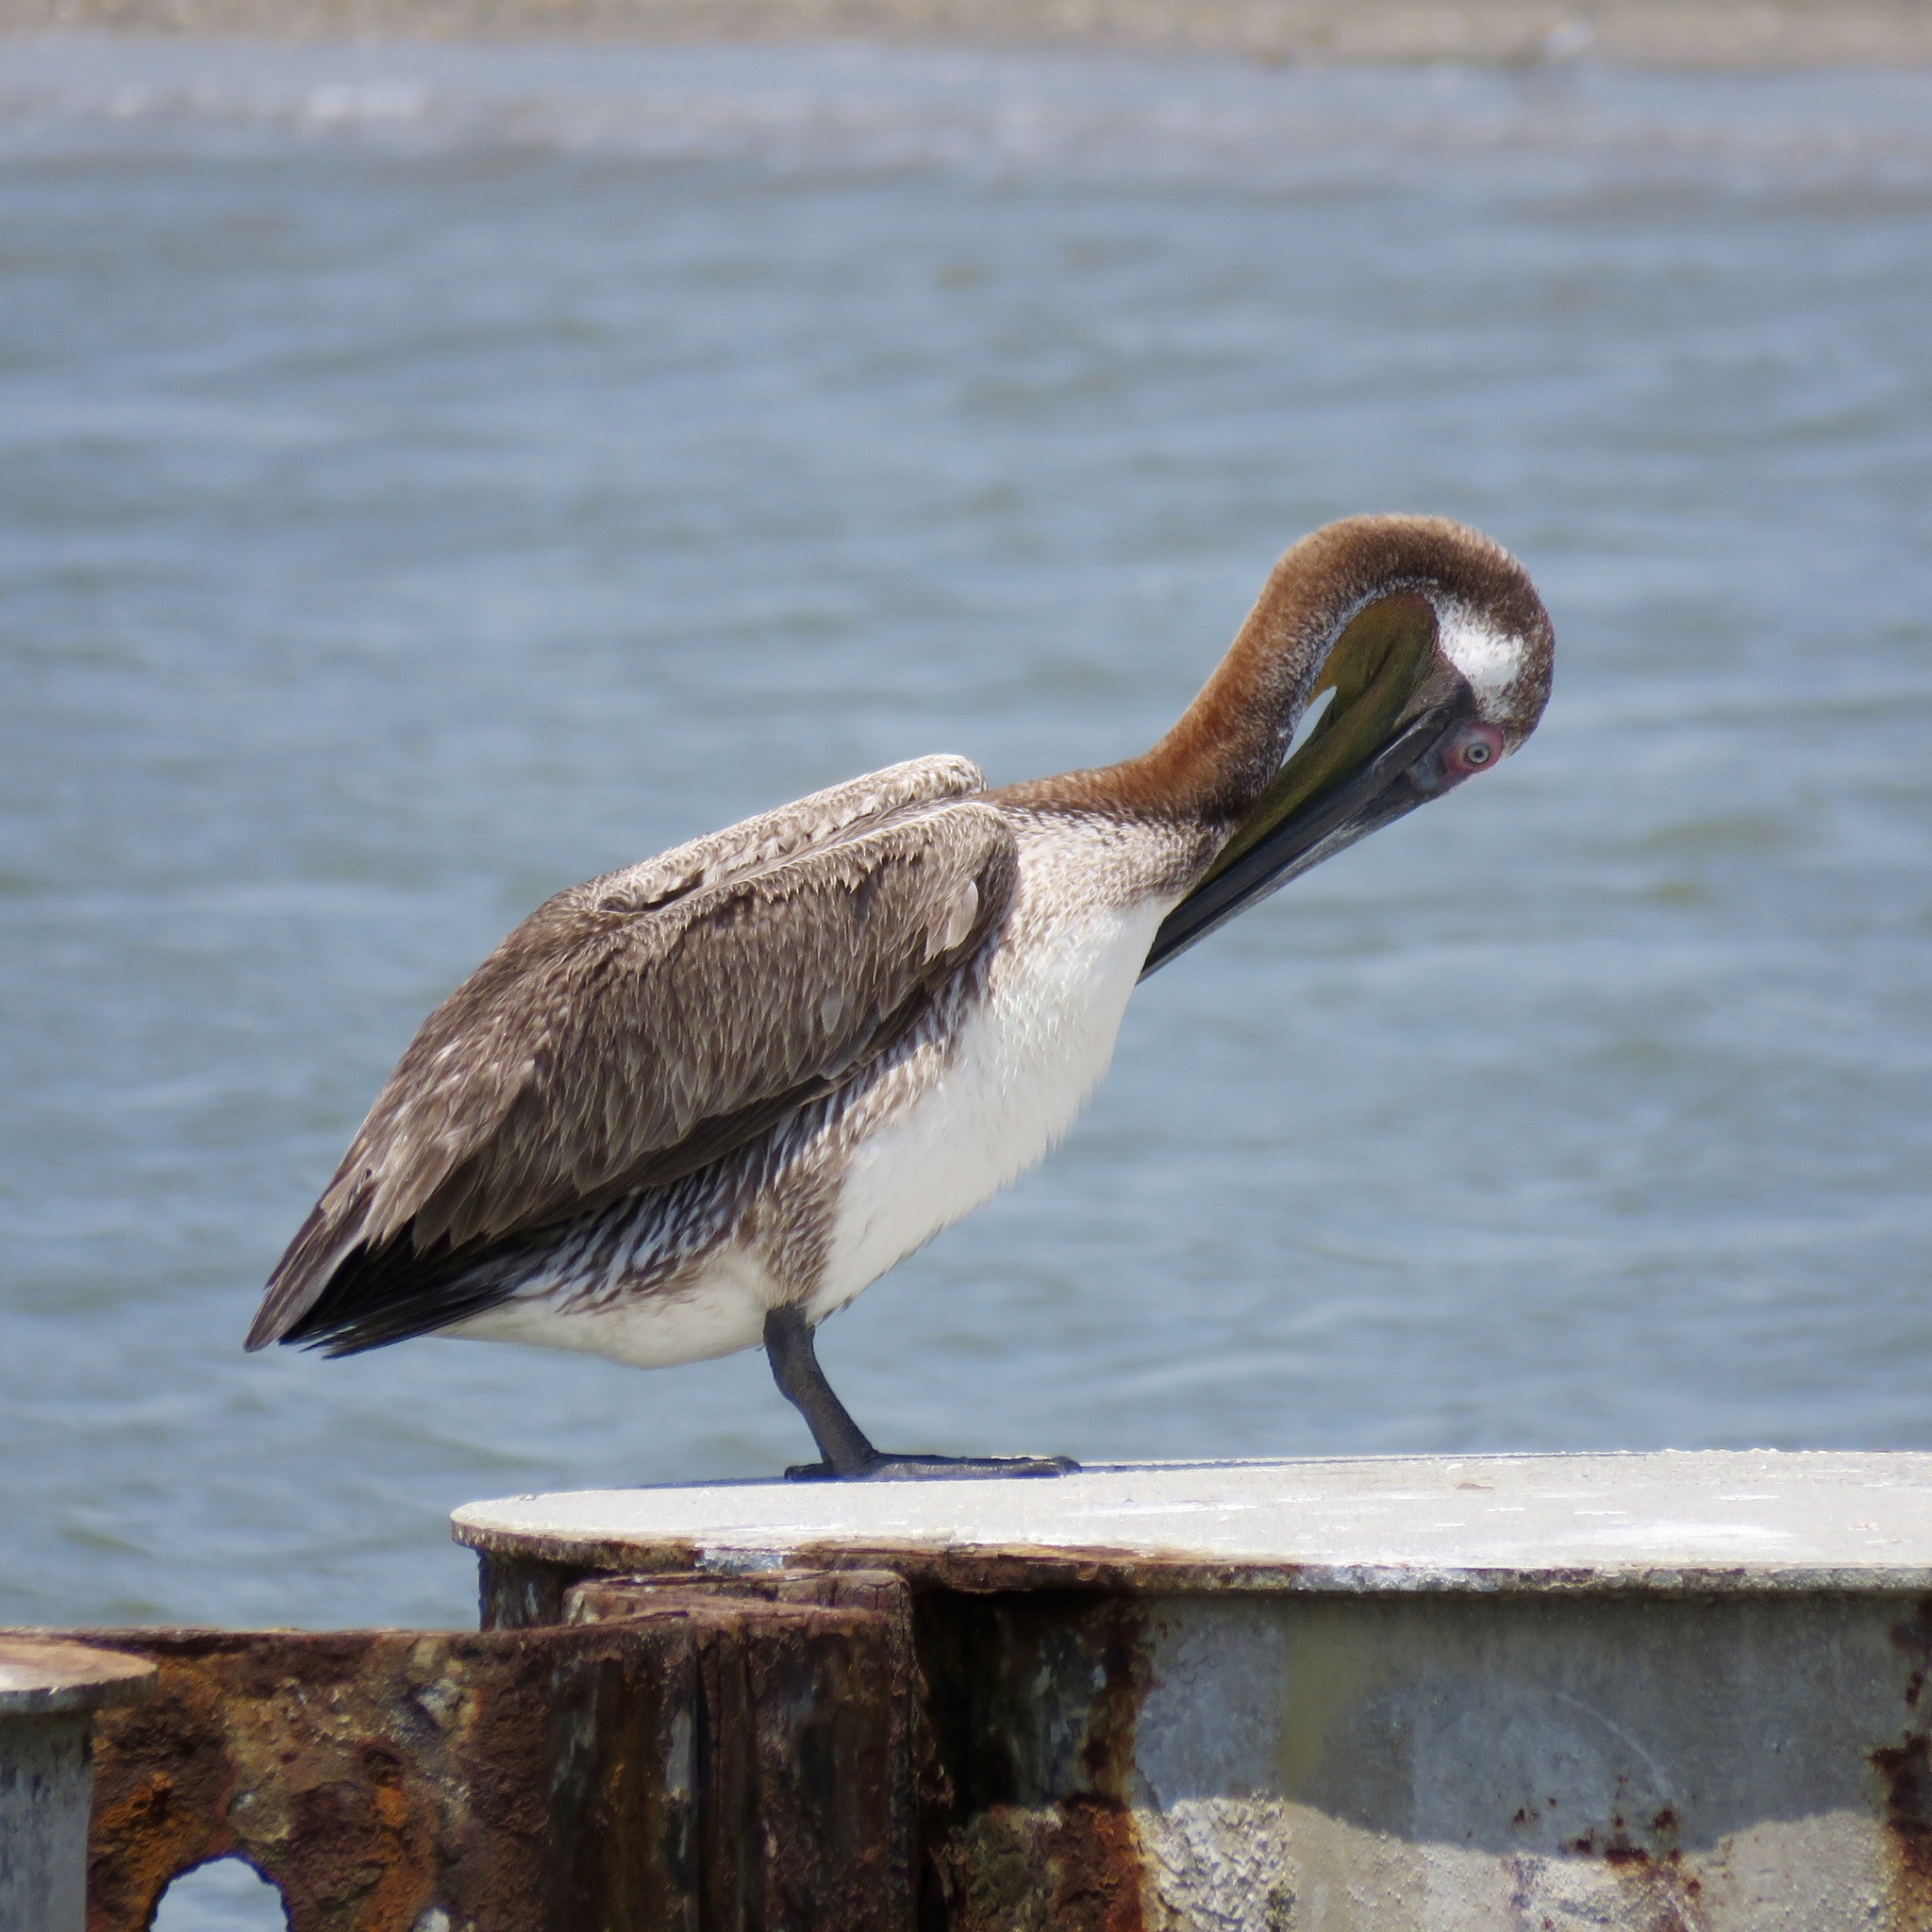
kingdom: Animalia
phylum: Chordata
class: Aves
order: Pelecaniformes
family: Pelecanidae
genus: Pelecanus
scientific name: Pelecanus occidentalis
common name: Brown pelican
